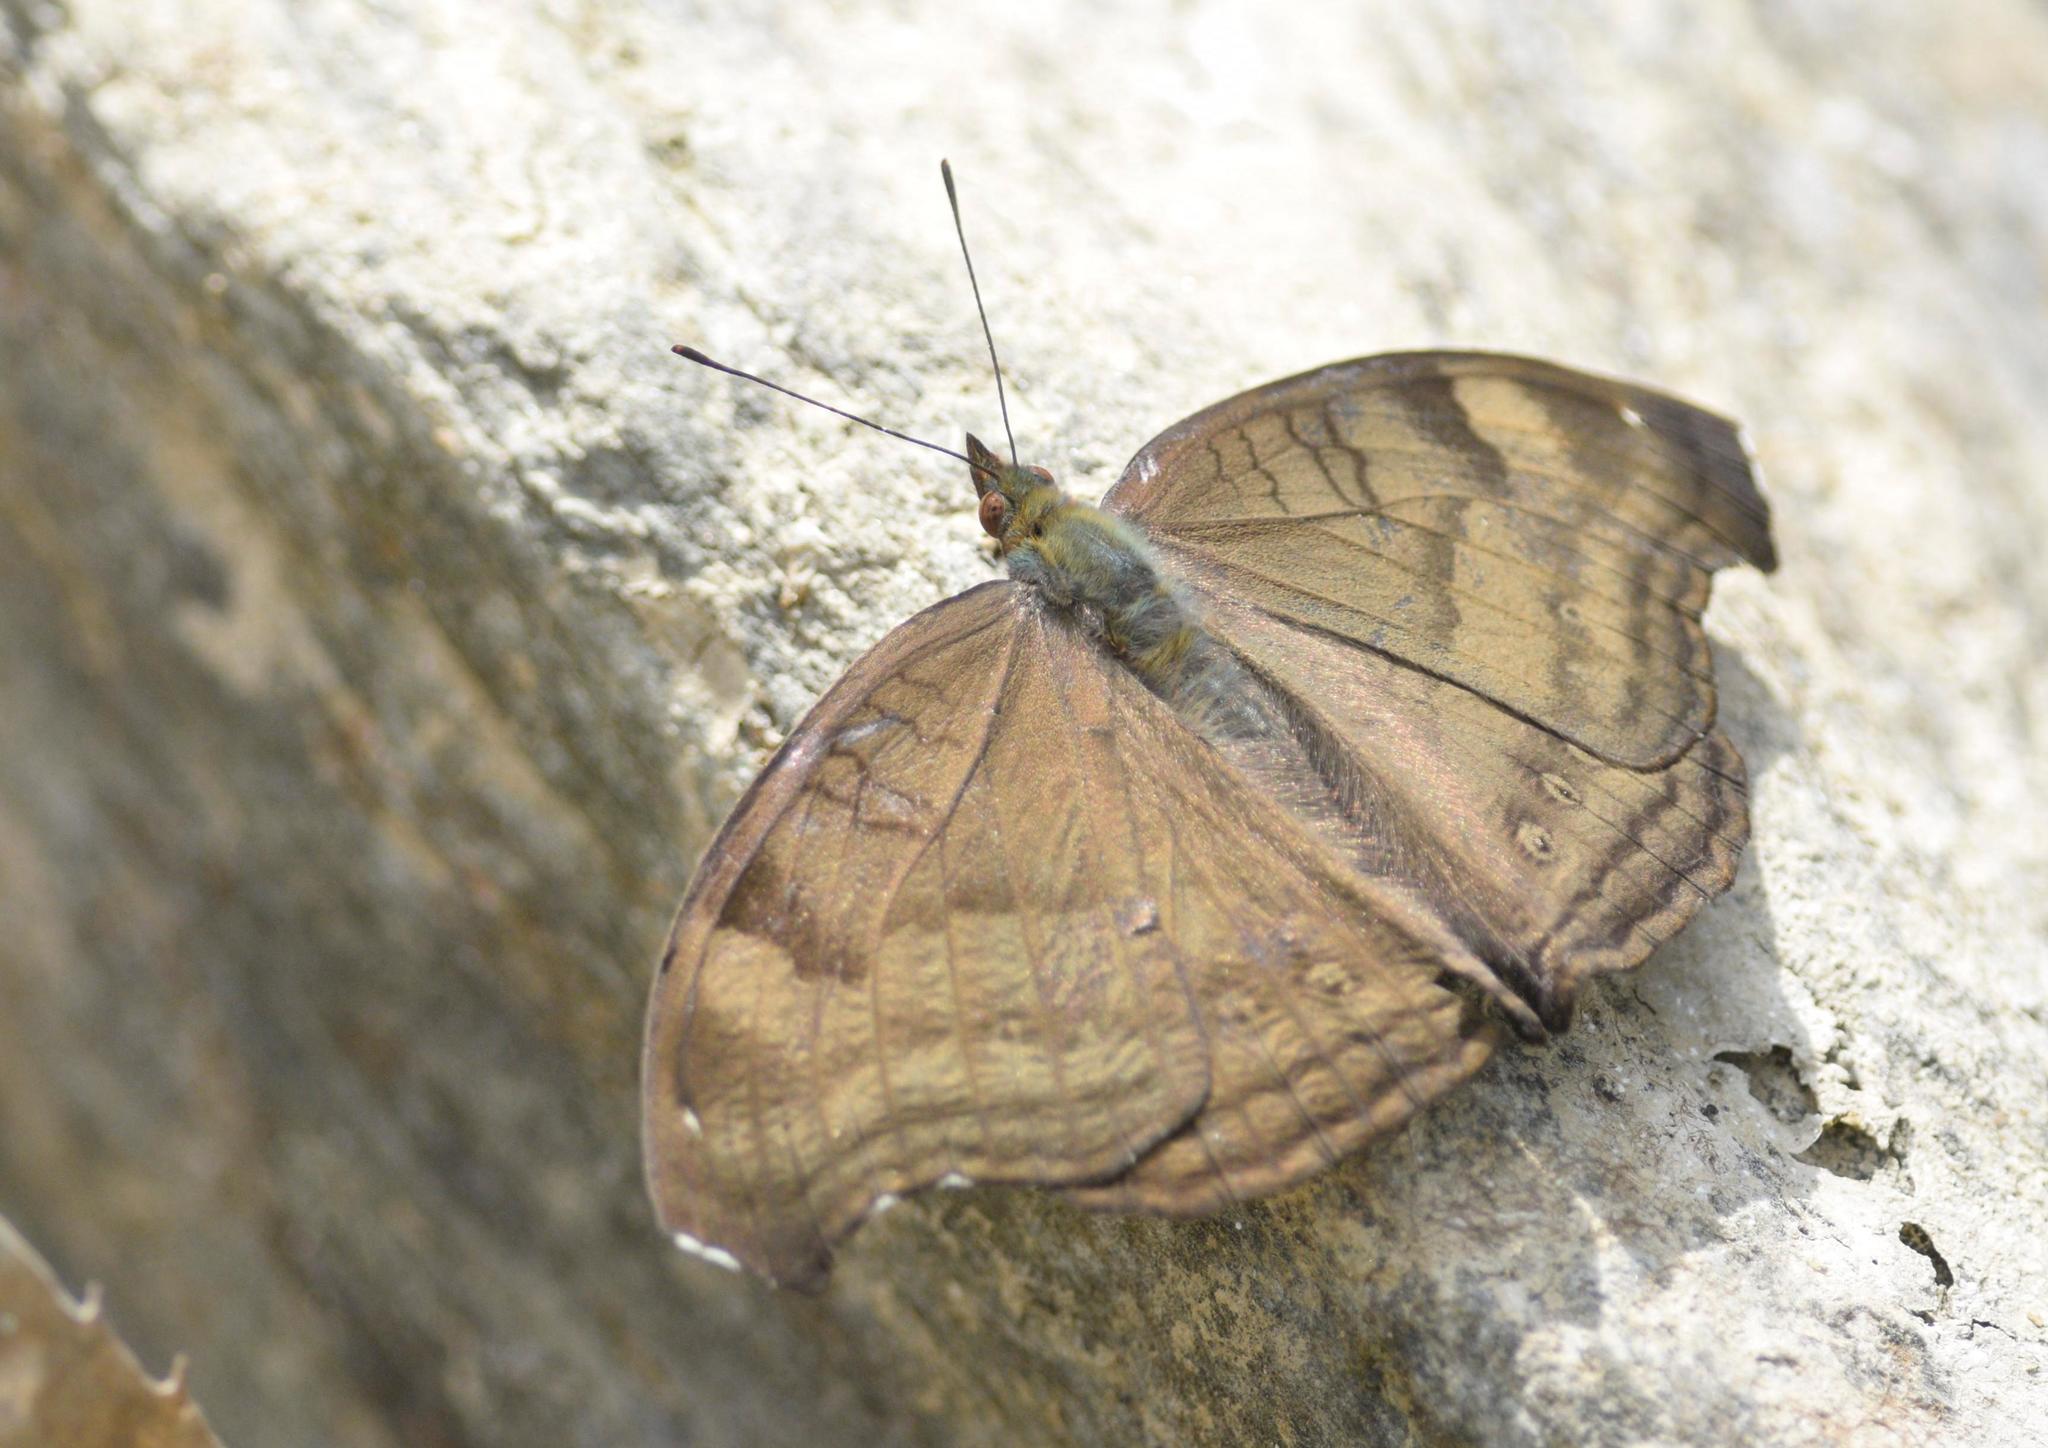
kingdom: Animalia
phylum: Arthropoda
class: Insecta
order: Lepidoptera
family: Nymphalidae
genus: Junonia
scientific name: Junonia iphita
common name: Chocolate pansy
